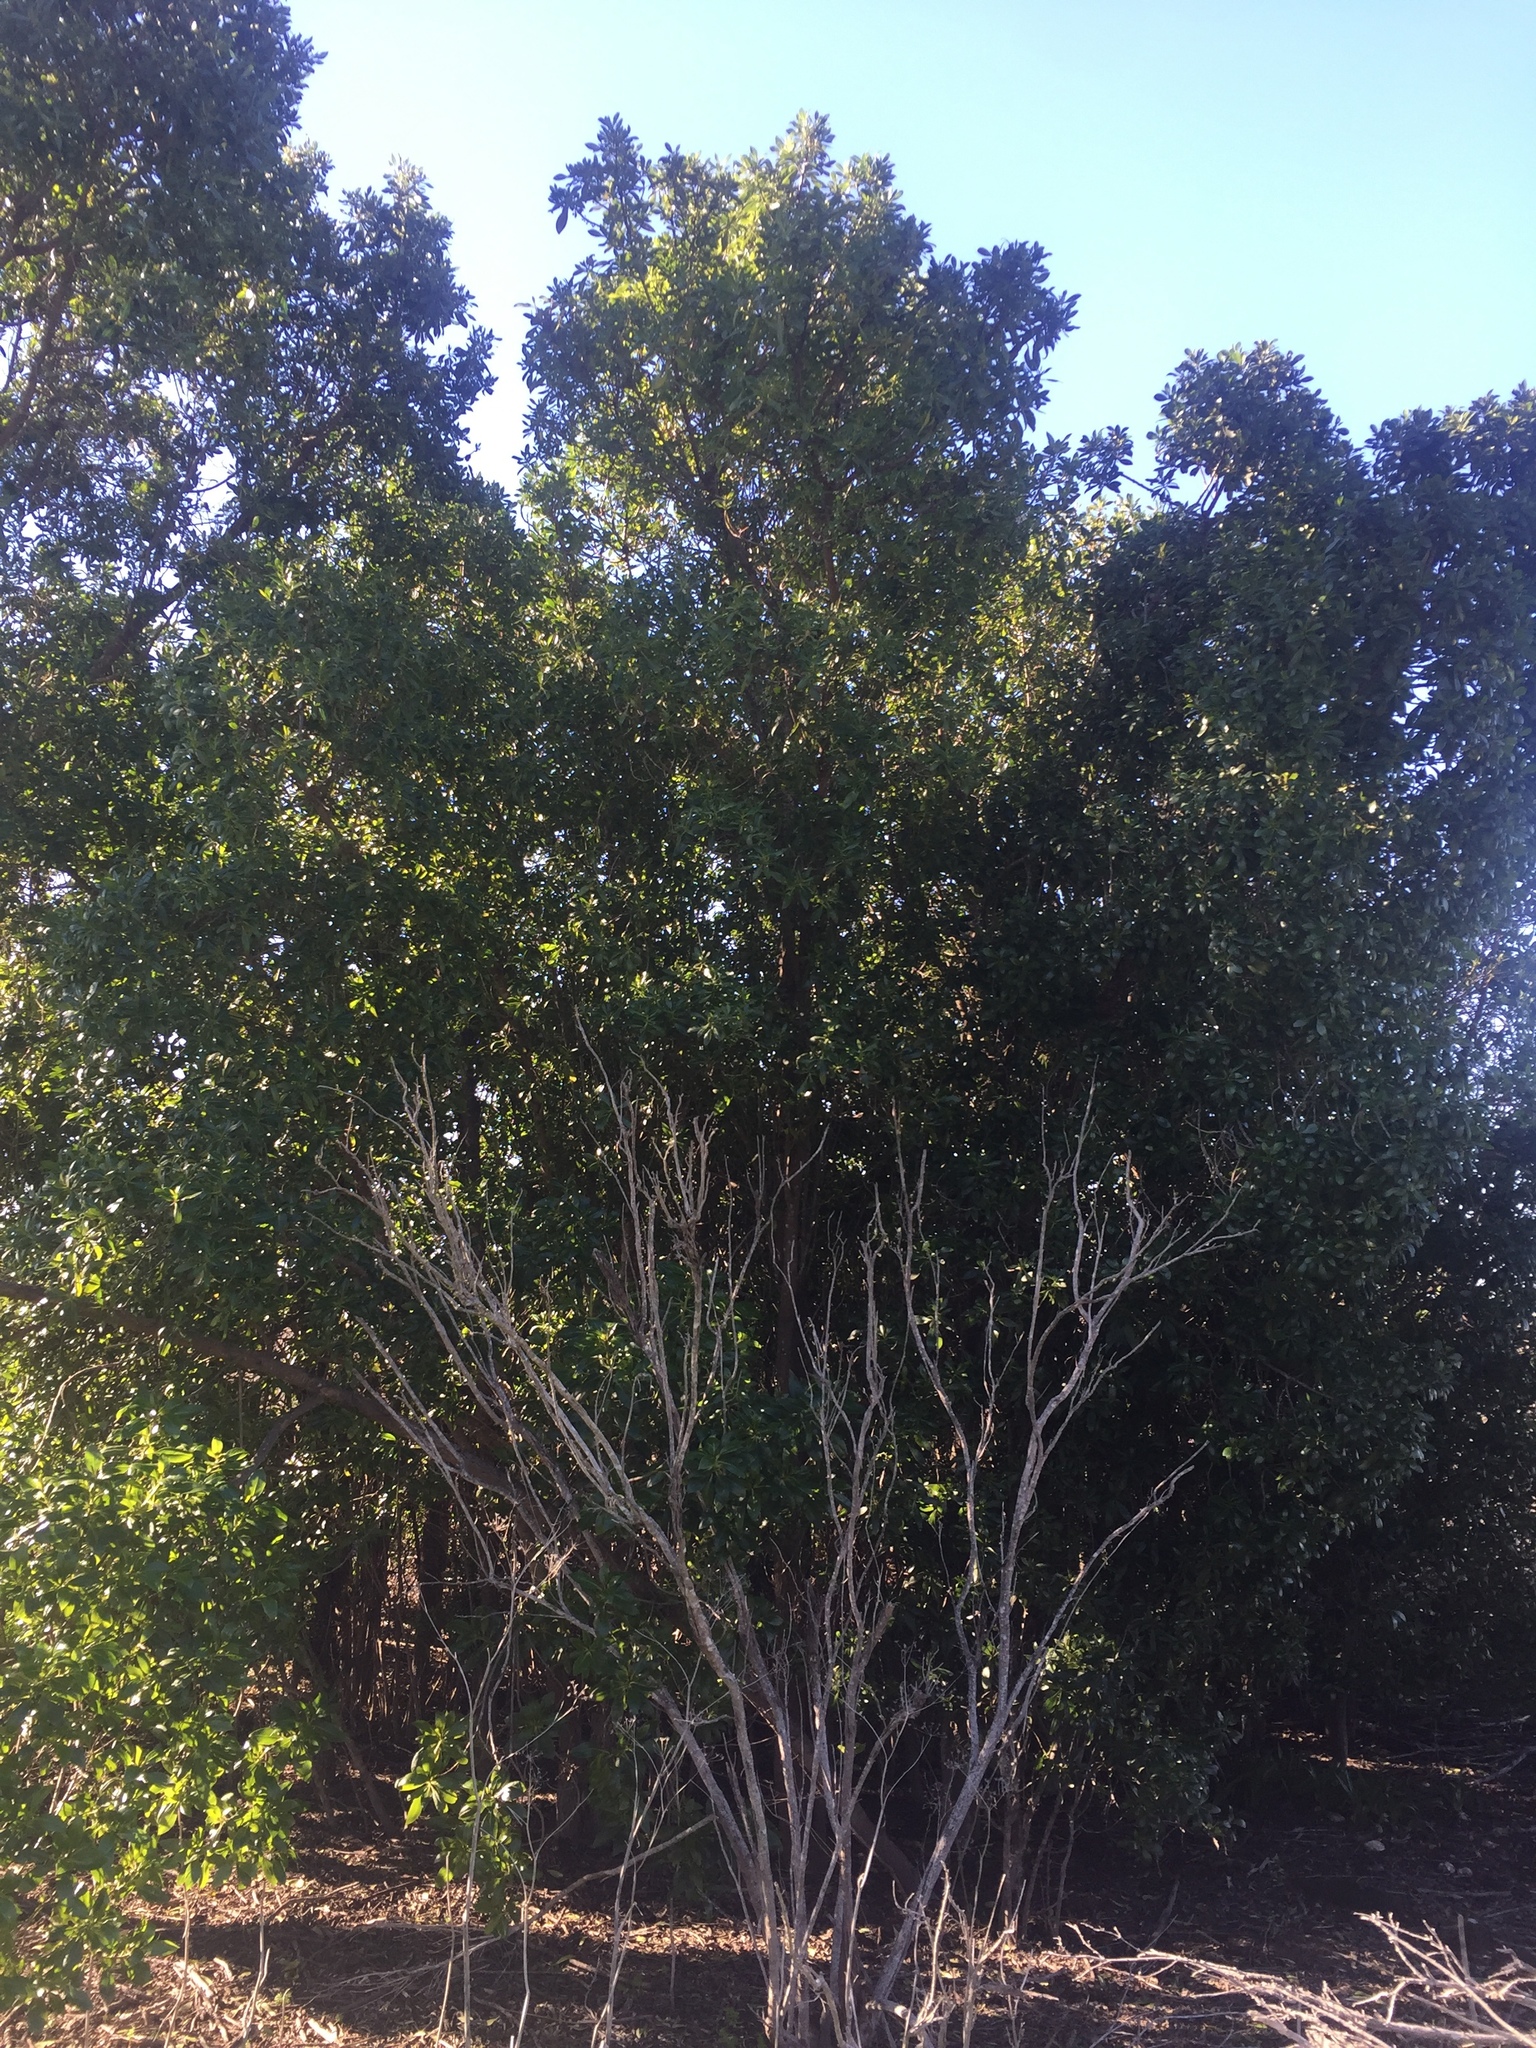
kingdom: Plantae
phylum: Tracheophyta
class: Magnoliopsida
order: Lamiales
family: Scrophulariaceae
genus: Myoporum
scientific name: Myoporum laetum
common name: Ngaio tree
